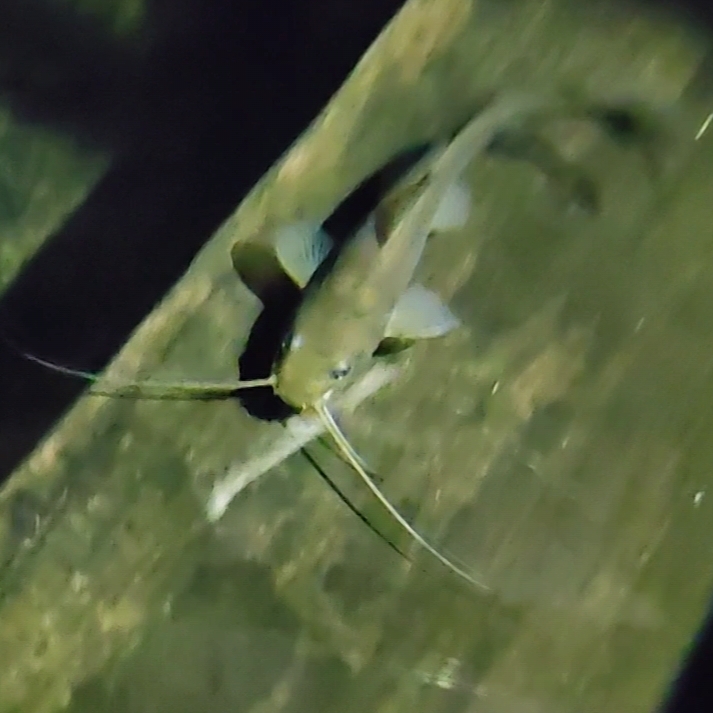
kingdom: Animalia
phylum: Chordata
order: Siluriformes
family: Heptapteridae
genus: Rhamdia
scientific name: Rhamdia guatemalensis
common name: Pale catfish
